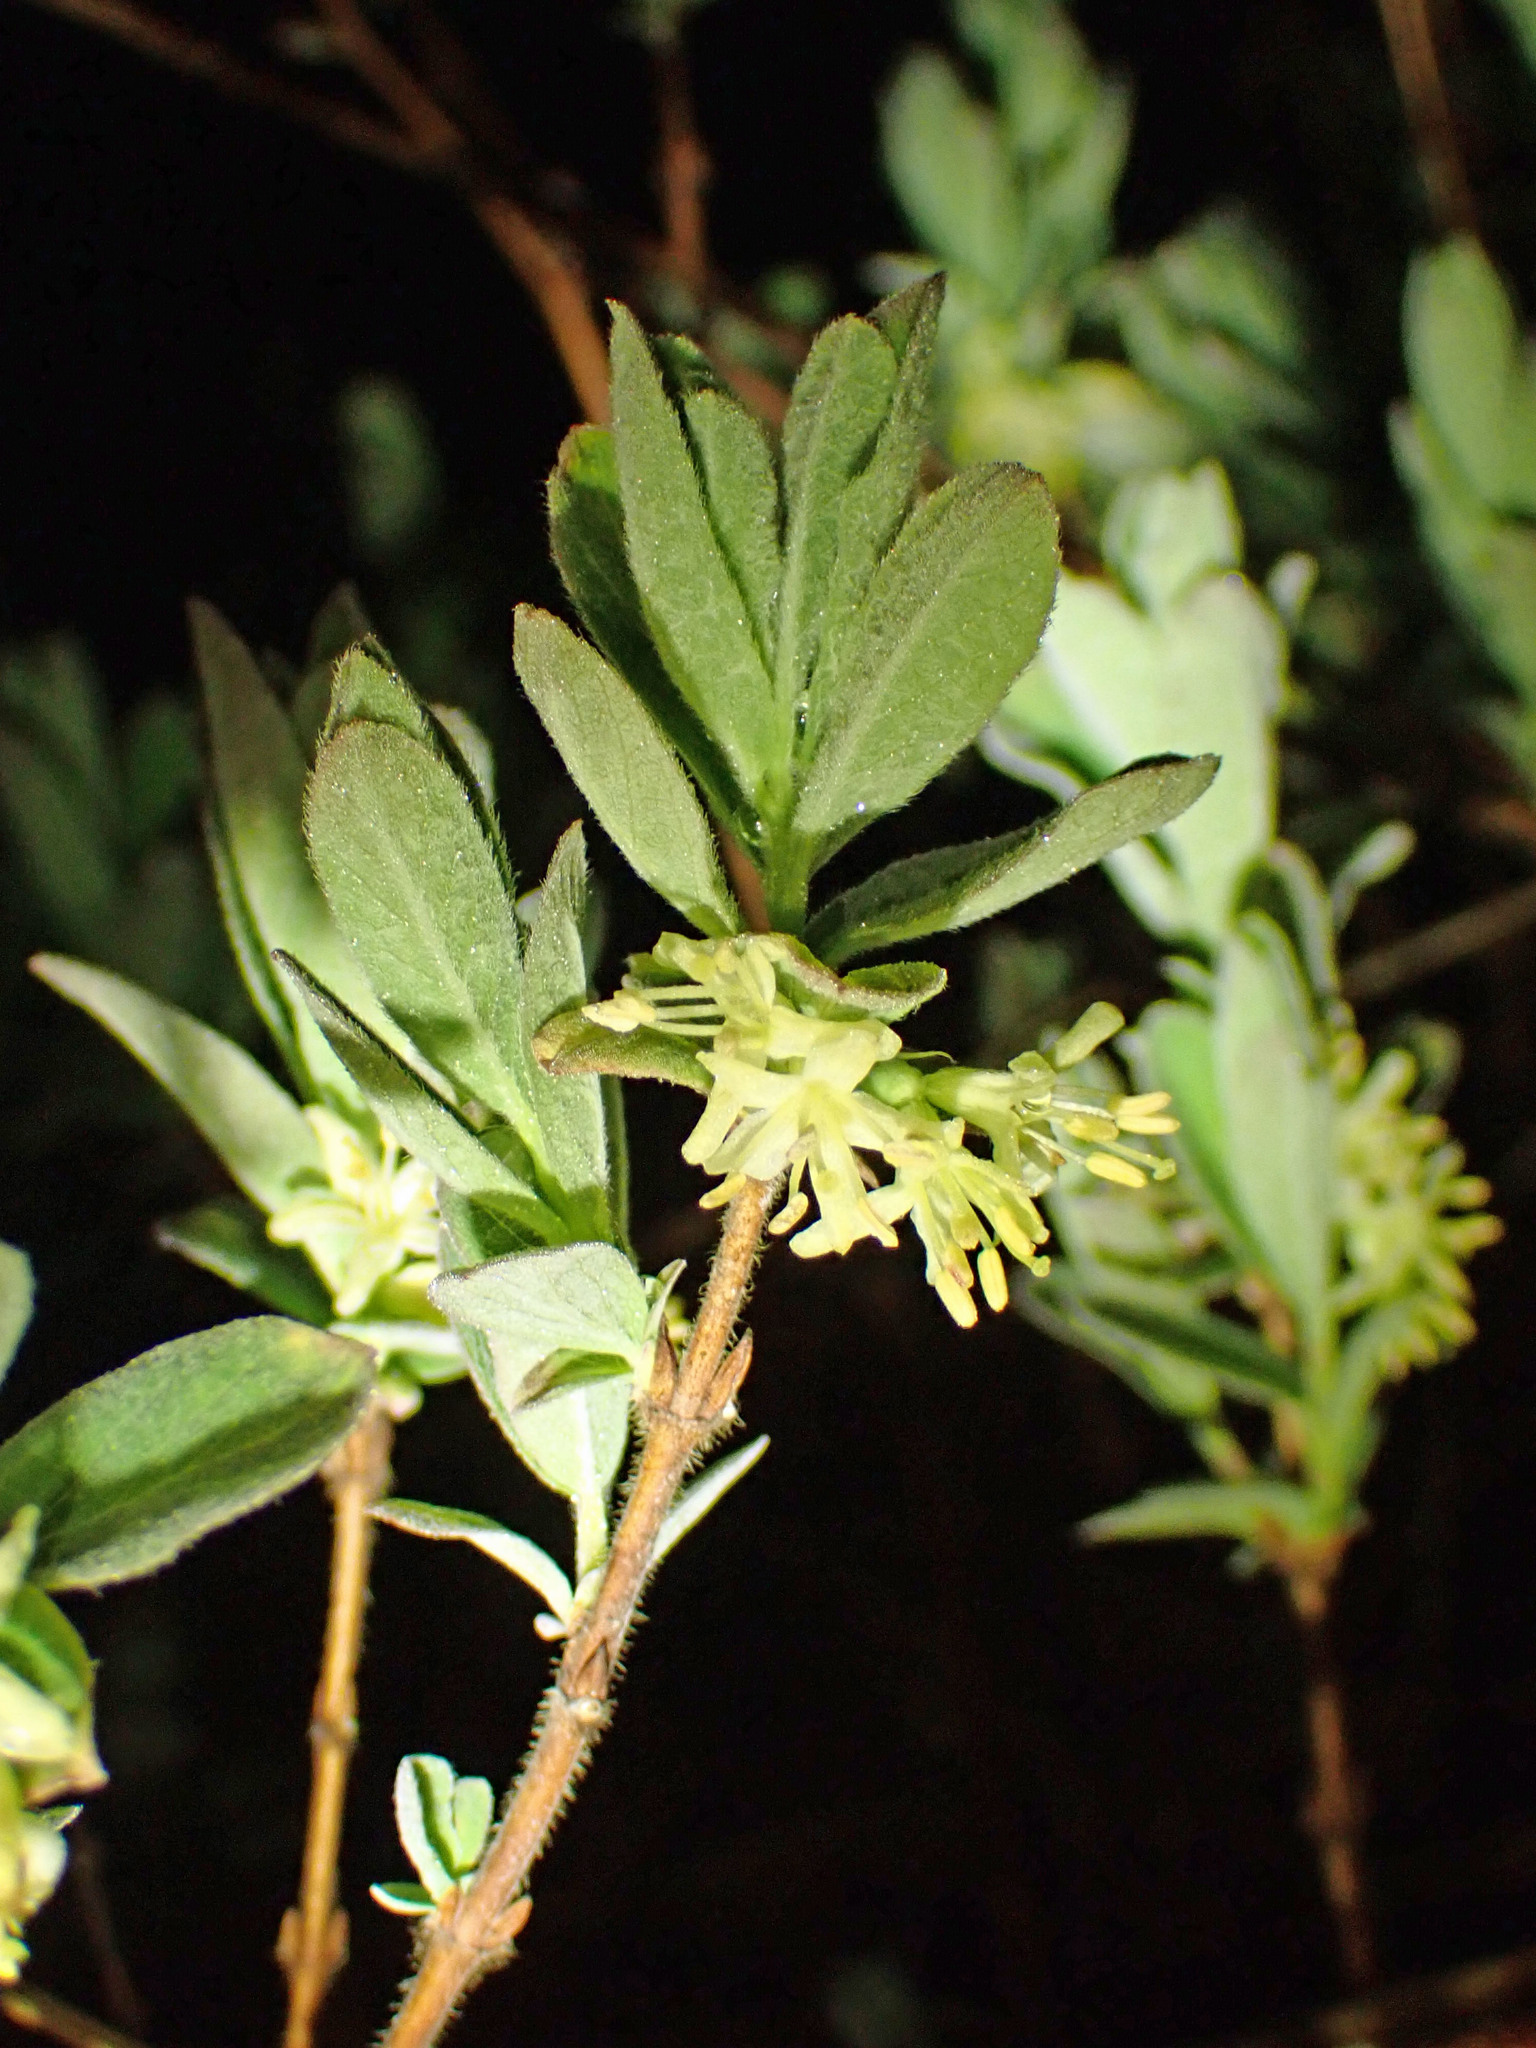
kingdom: Plantae
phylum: Tracheophyta
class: Magnoliopsida
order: Dipsacales
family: Caprifoliaceae
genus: Lonicera
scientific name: Lonicera villosa
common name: Mountain fly-honeysuckle
